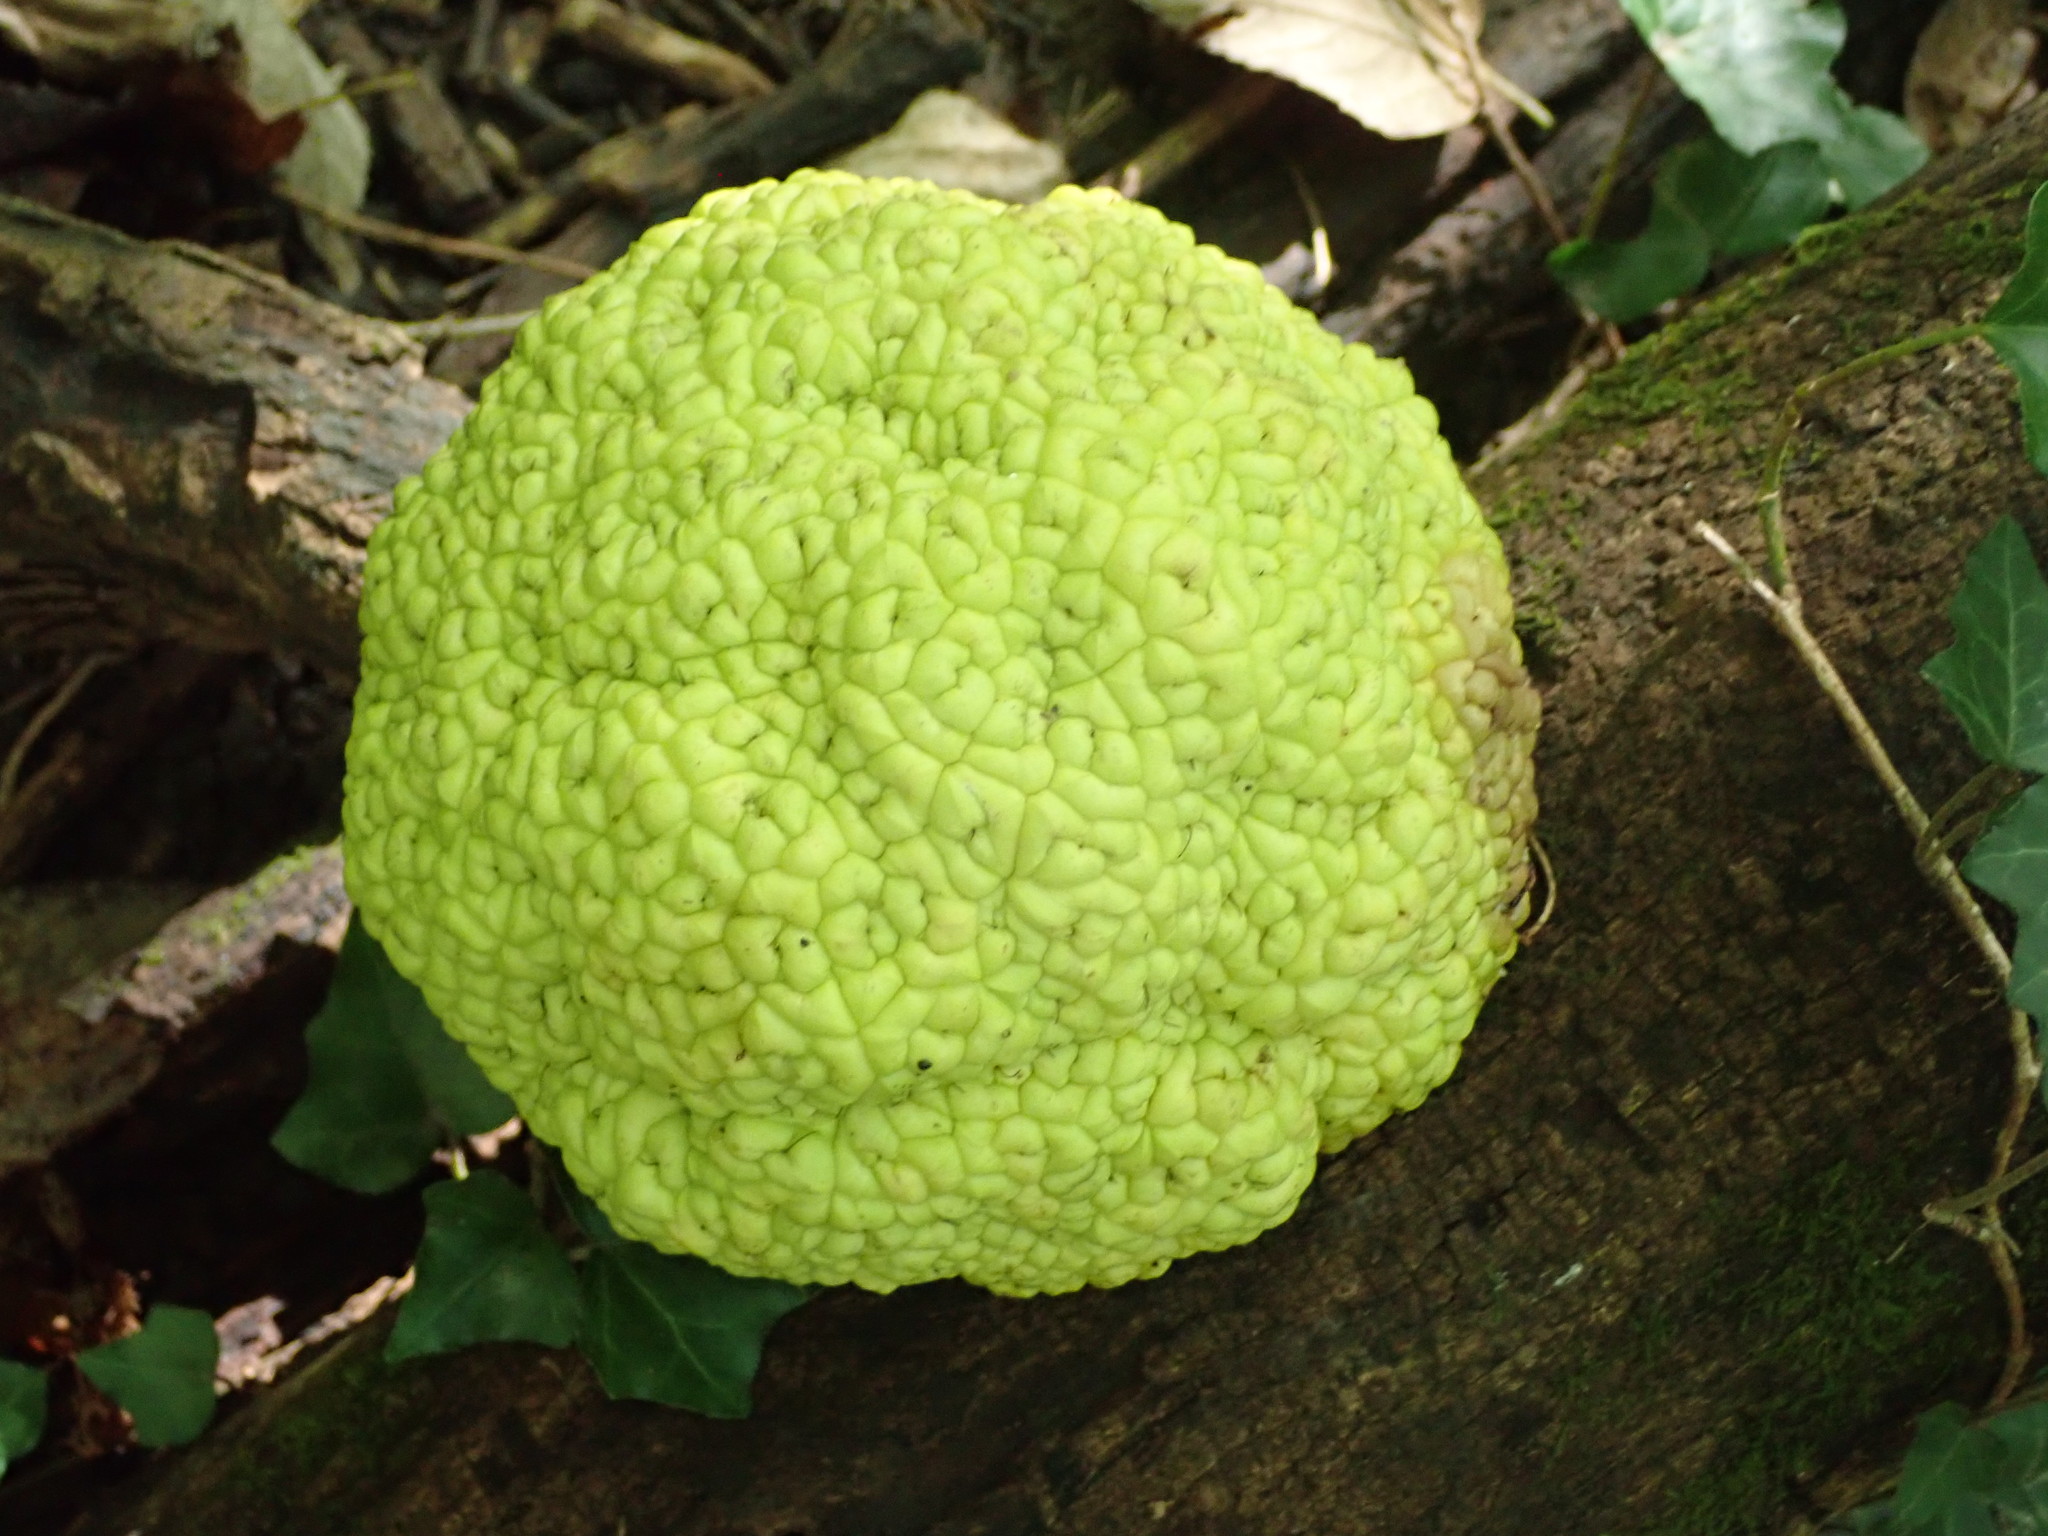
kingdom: Plantae
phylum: Tracheophyta
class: Magnoliopsida
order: Rosales
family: Moraceae
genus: Maclura
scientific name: Maclura pomifera
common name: Osage-orange
